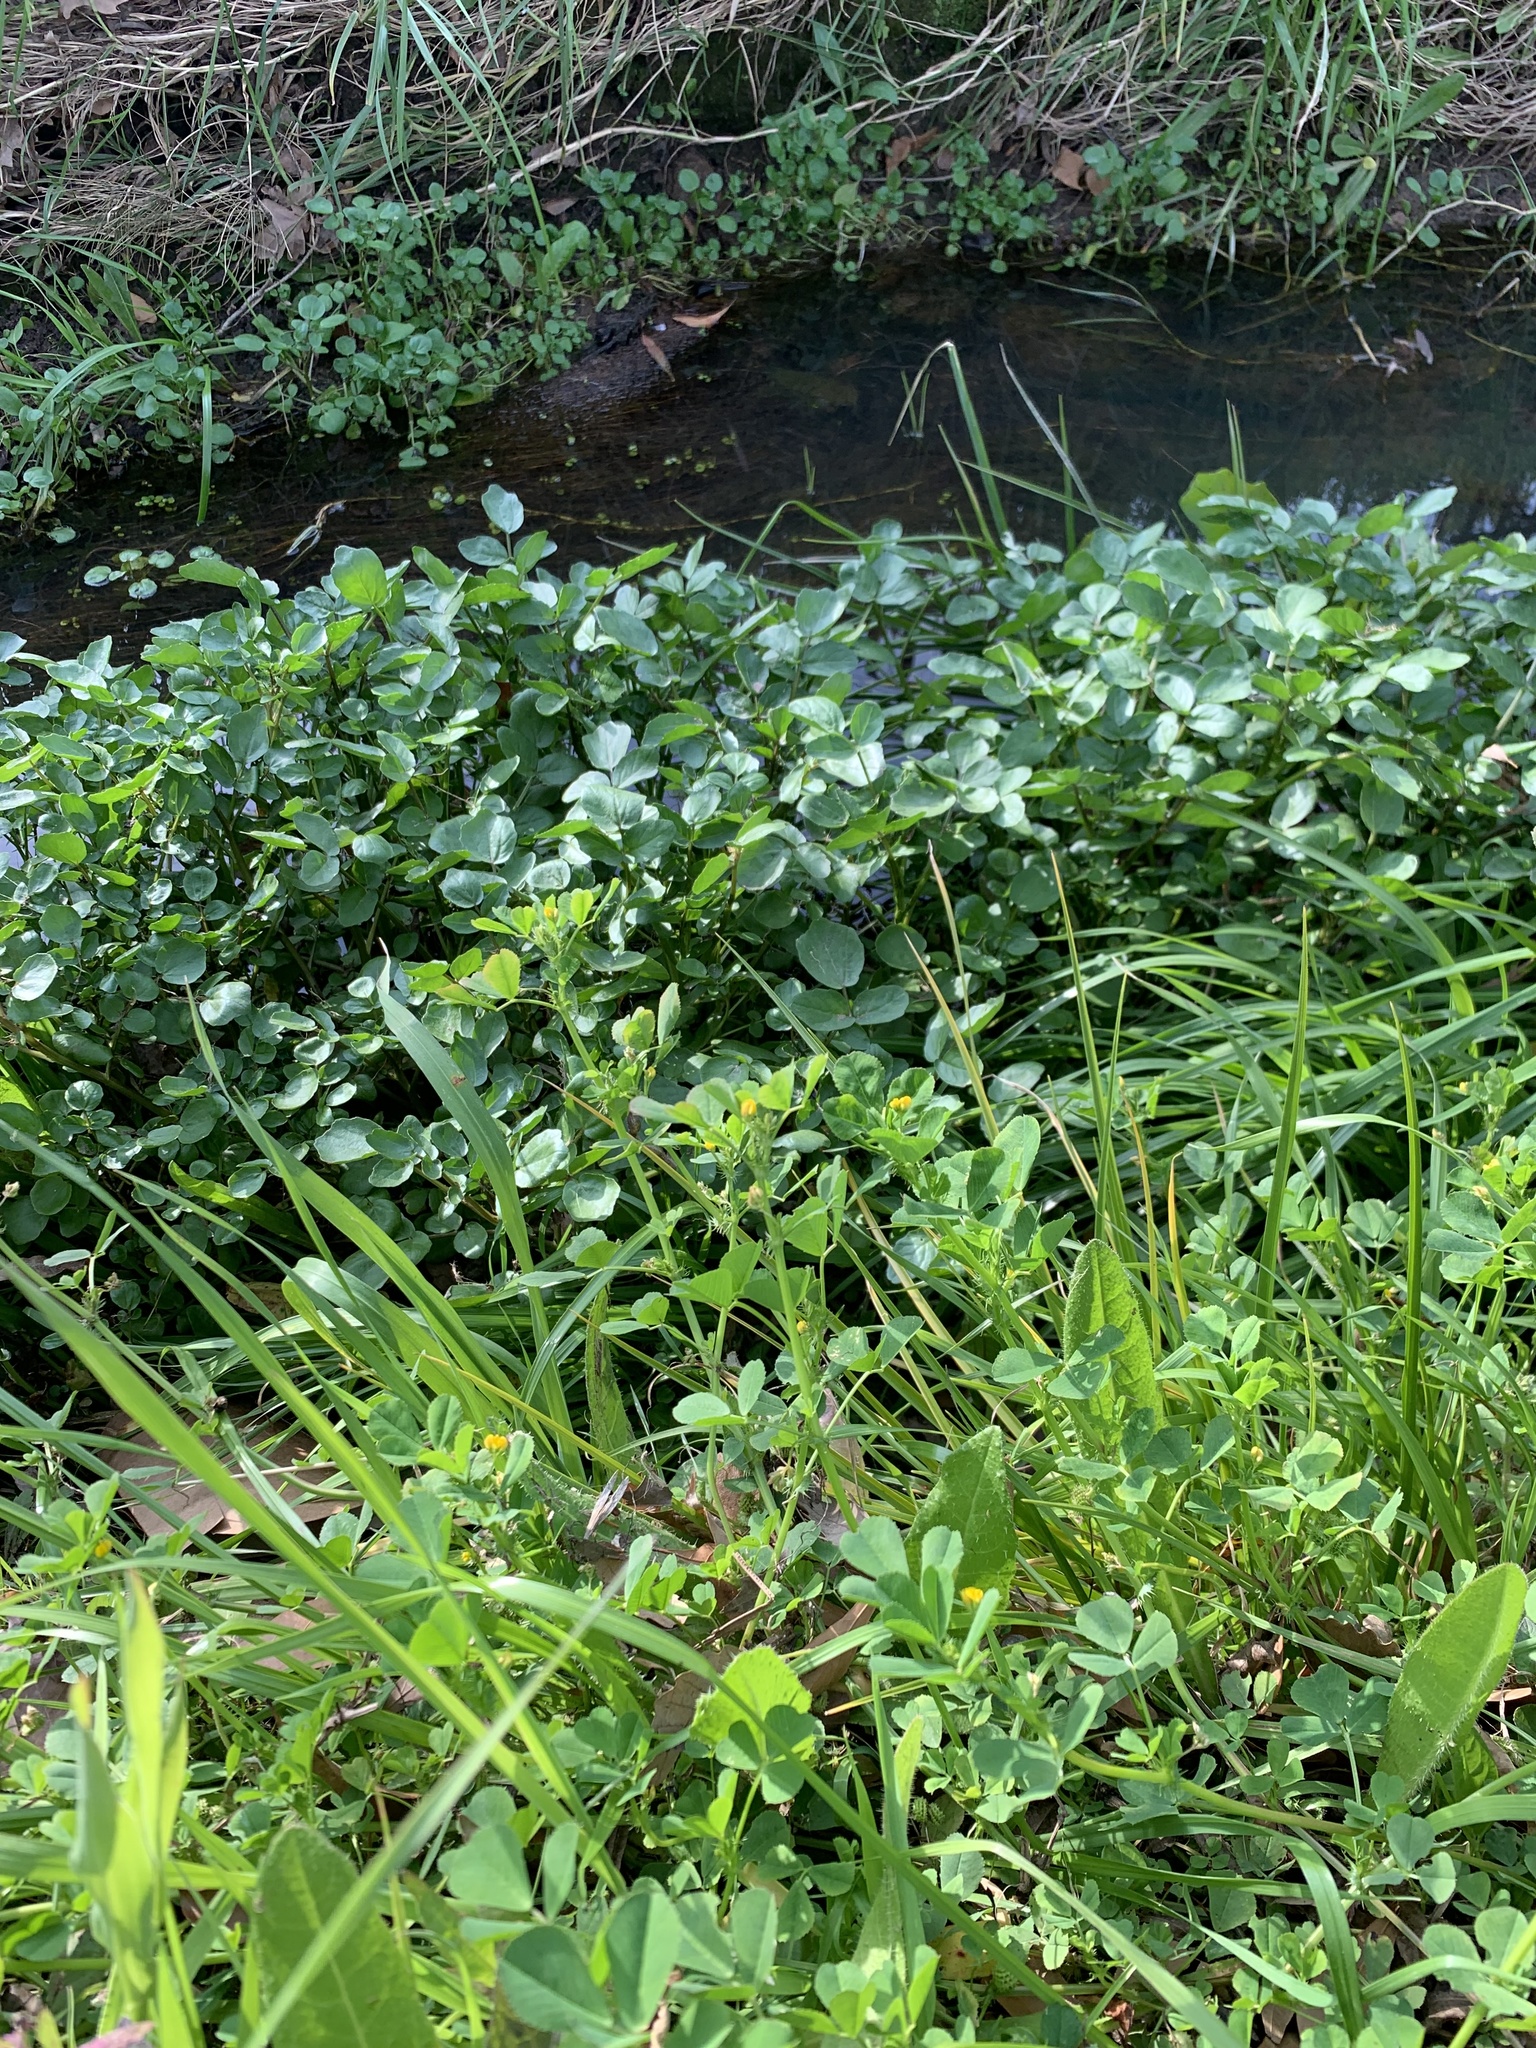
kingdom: Plantae
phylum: Tracheophyta
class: Magnoliopsida
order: Fabales
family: Fabaceae
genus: Medicago
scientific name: Medicago polymorpha
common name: Burclover
